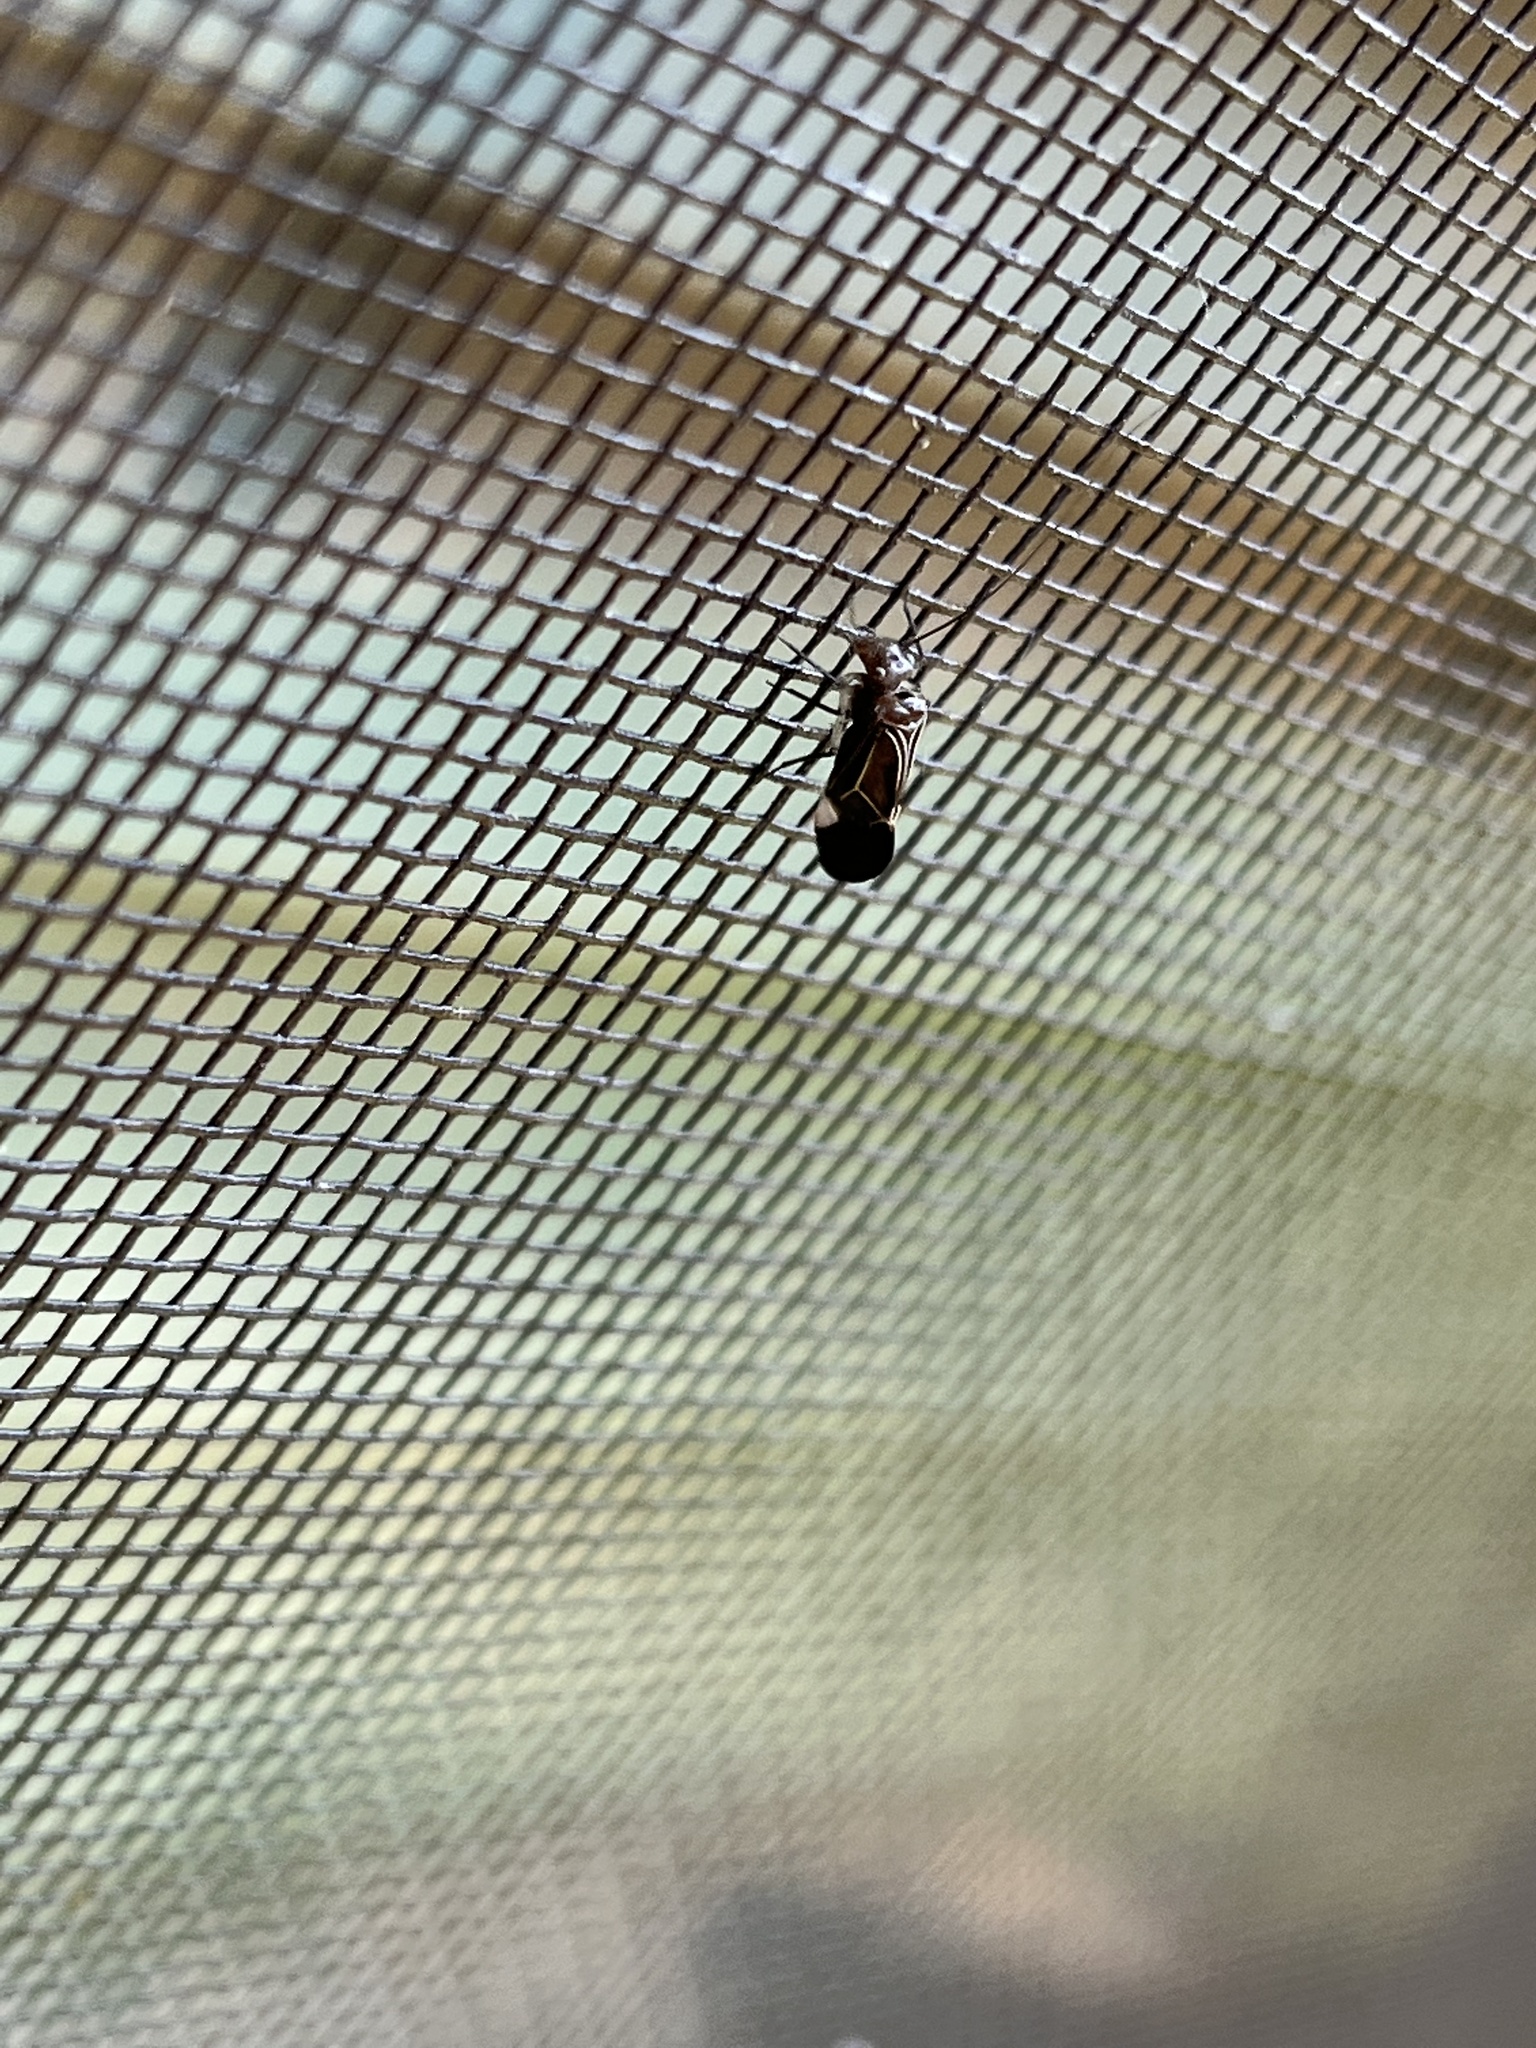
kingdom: Animalia
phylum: Arthropoda
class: Insecta
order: Psocodea
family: Psocidae
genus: Cerastipsocus
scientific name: Cerastipsocus venosus
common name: Tree cattle
